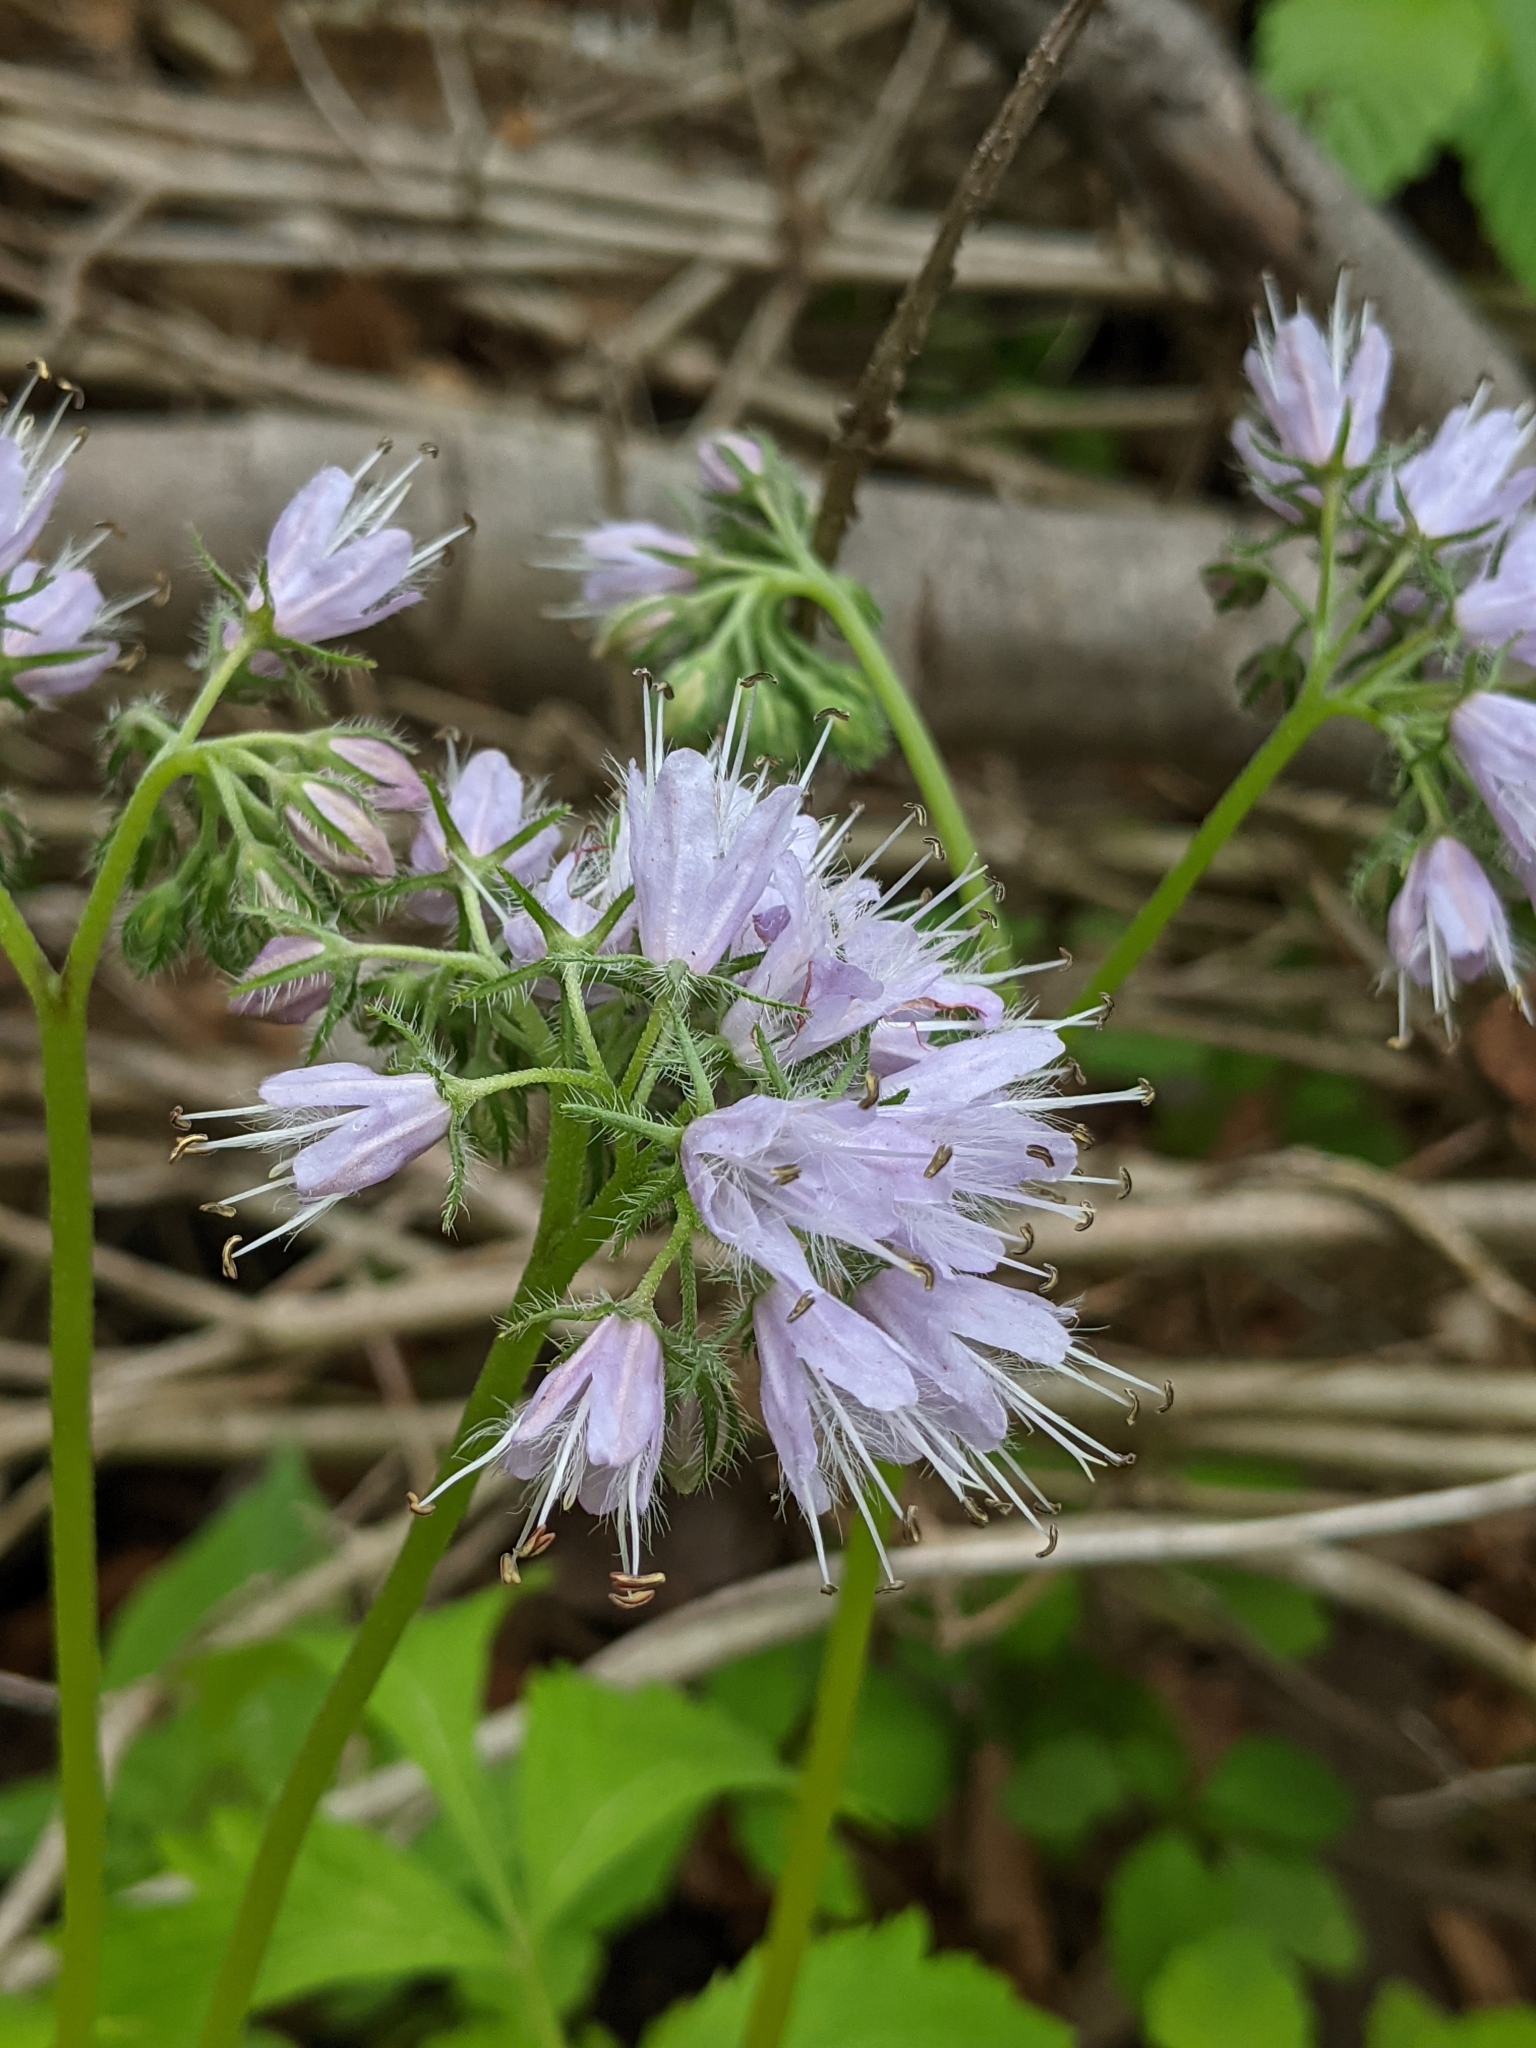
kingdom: Plantae
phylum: Tracheophyta
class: Magnoliopsida
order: Boraginales
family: Hydrophyllaceae
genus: Hydrophyllum
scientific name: Hydrophyllum virginianum
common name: Virginia waterleaf
